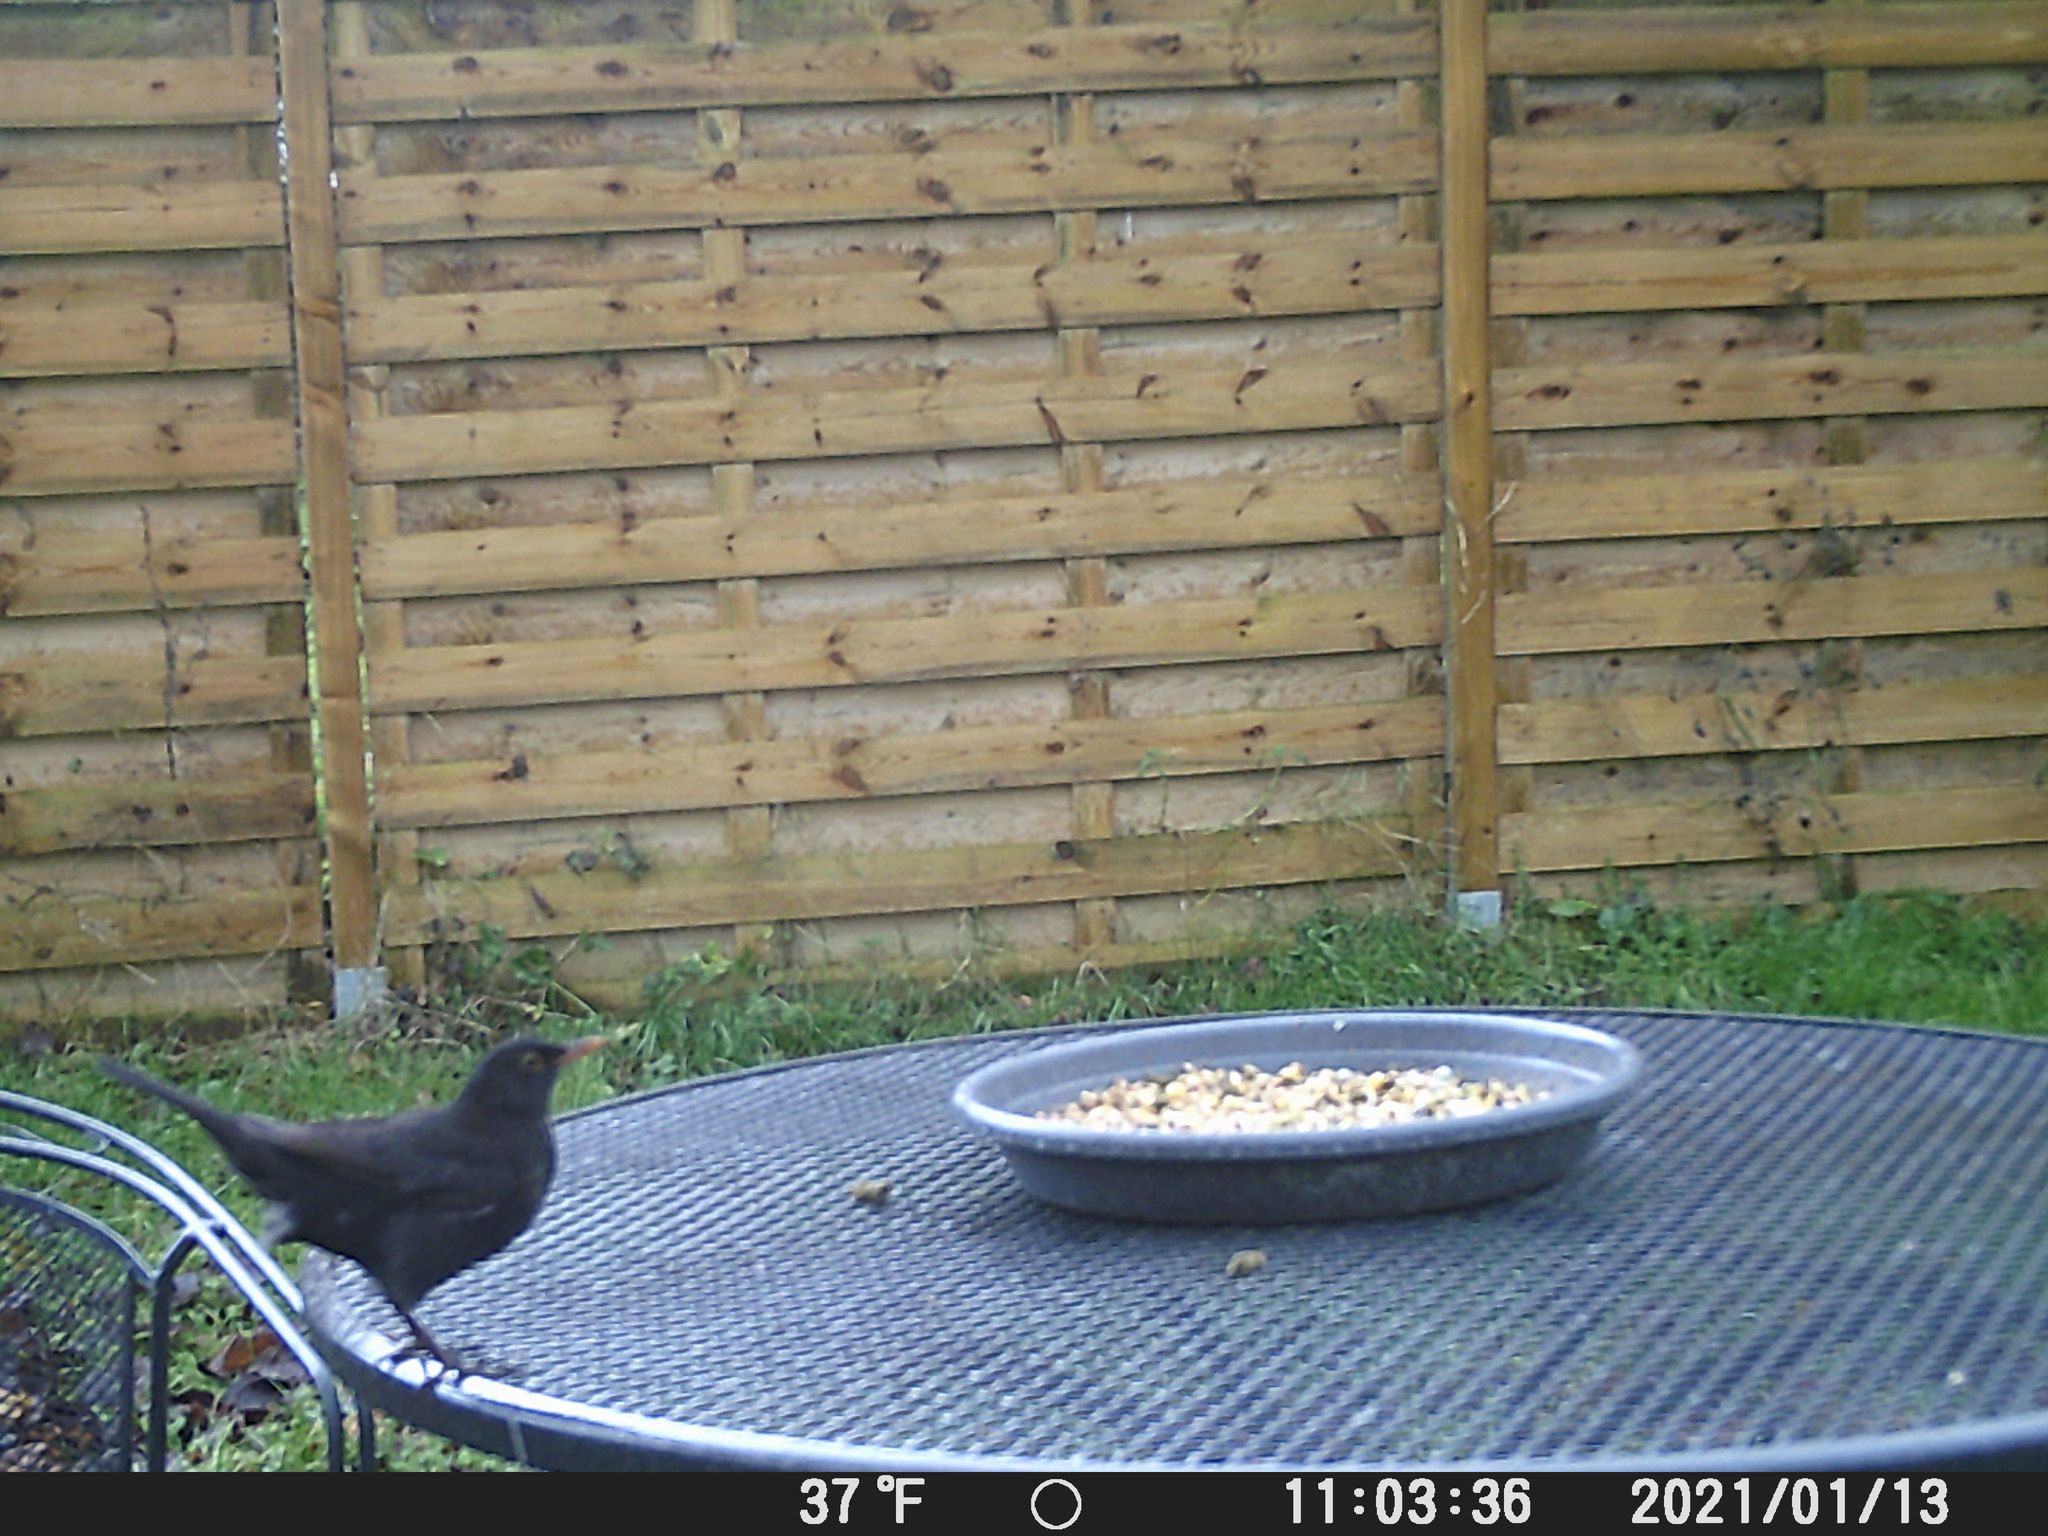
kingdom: Animalia
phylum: Chordata
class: Aves
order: Passeriformes
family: Turdidae
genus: Turdus
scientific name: Turdus merula
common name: Common blackbird
